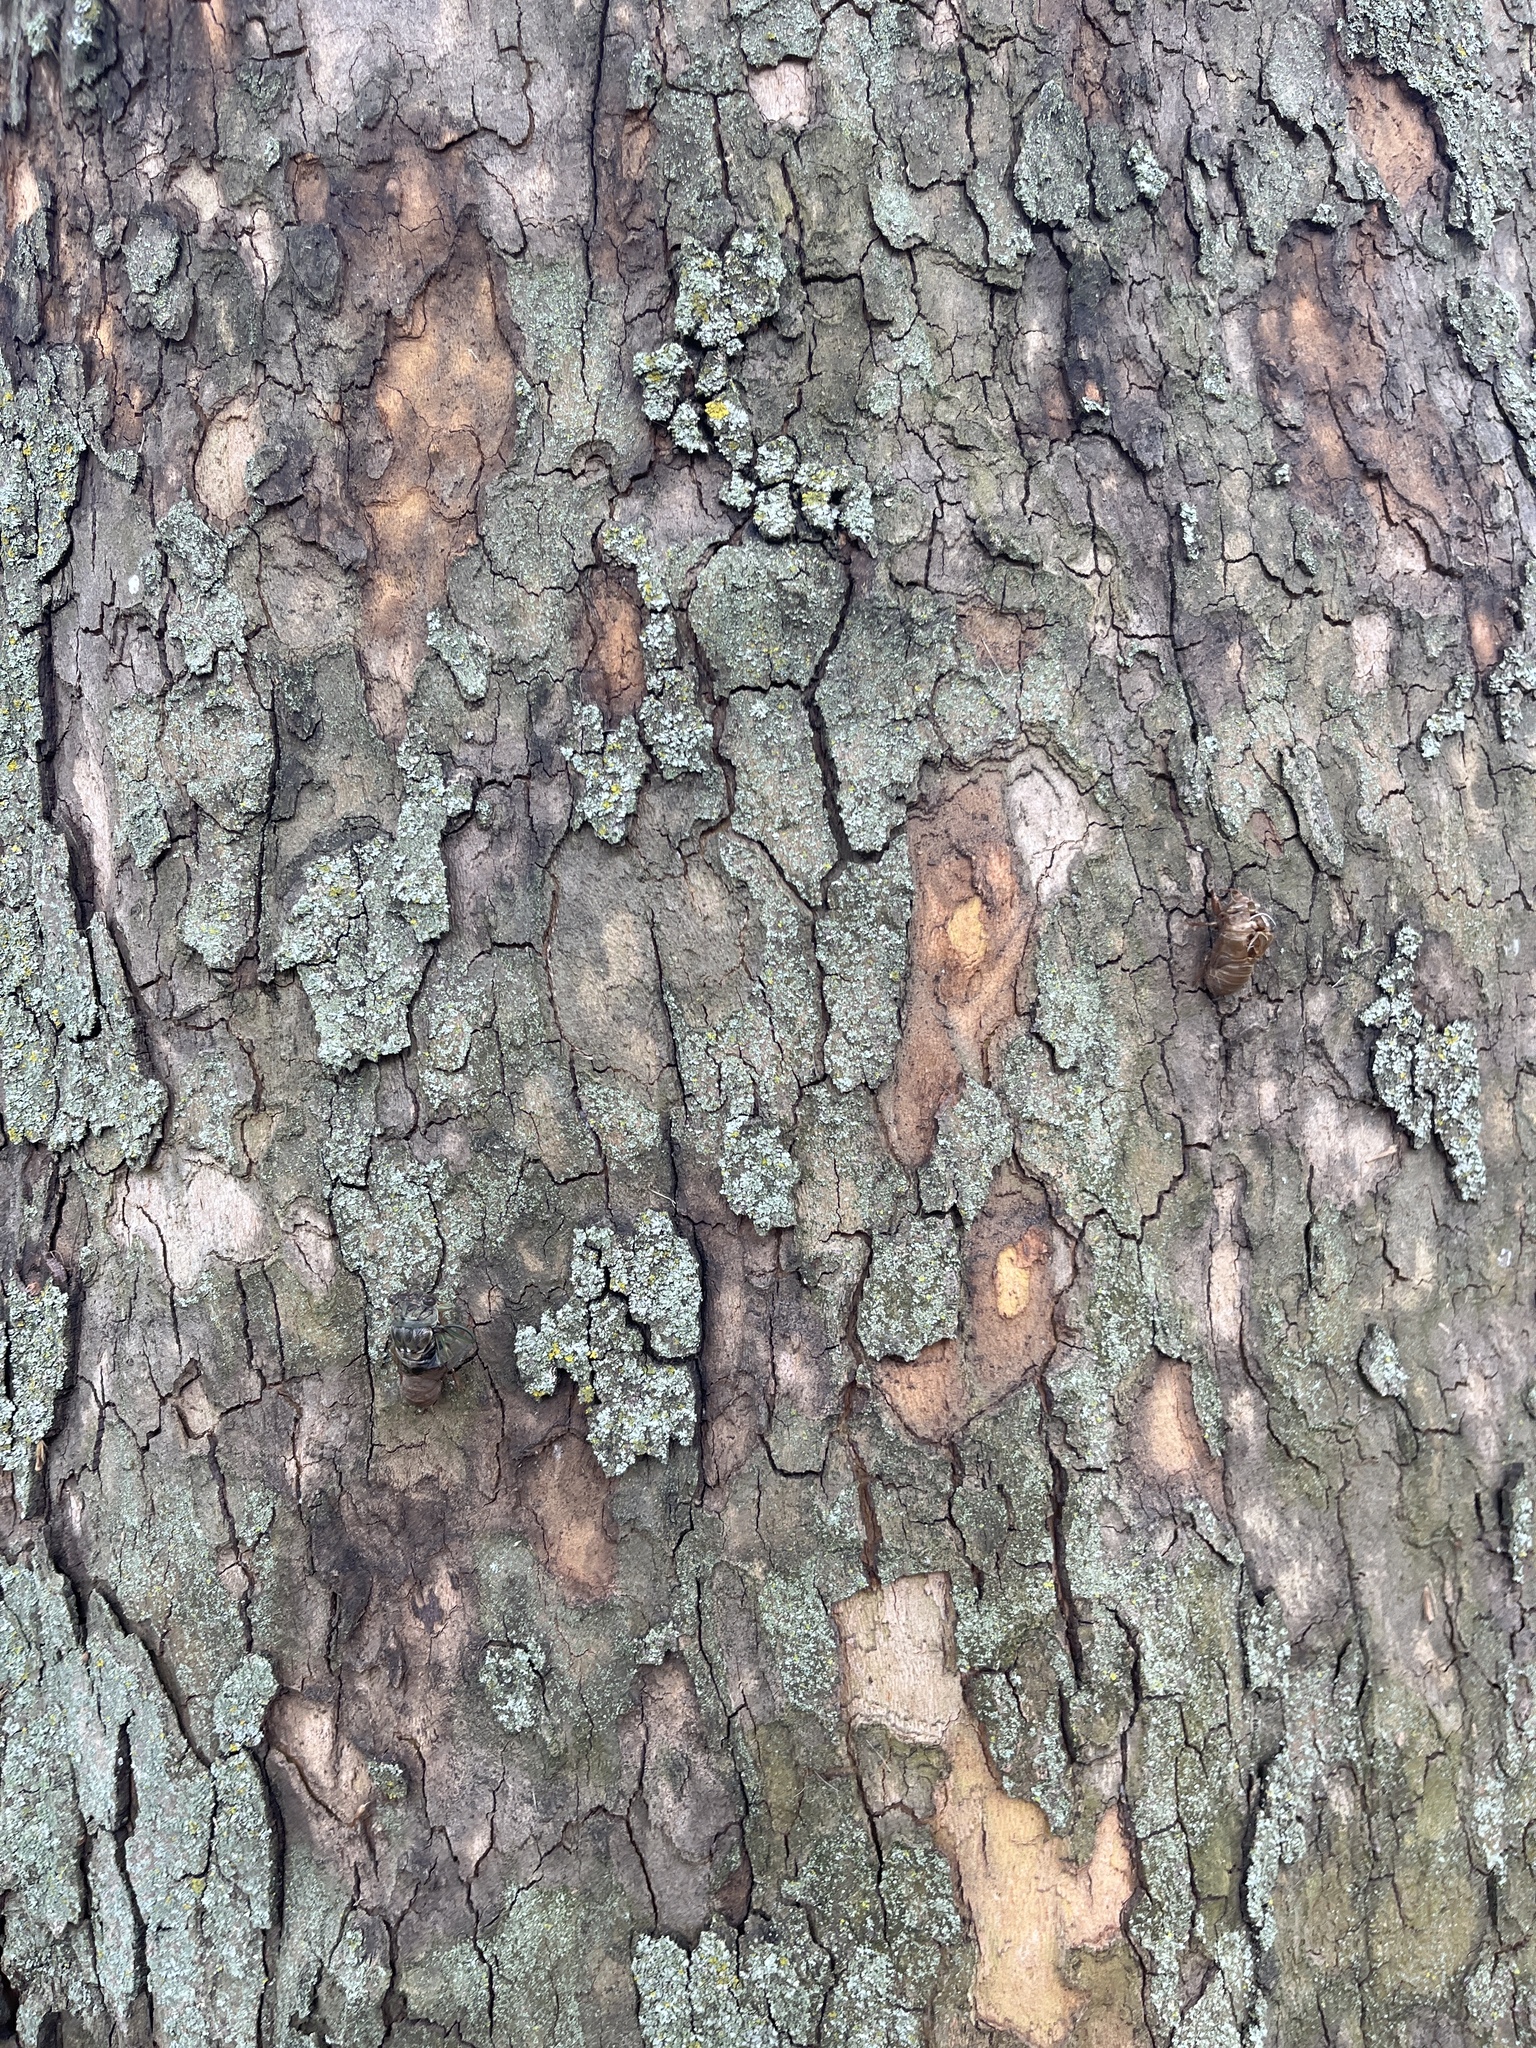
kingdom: Animalia
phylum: Arthropoda
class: Insecta
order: Hemiptera
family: Cicadidae
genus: Neotibicen
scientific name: Neotibicen canicularis
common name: God-day cicada
